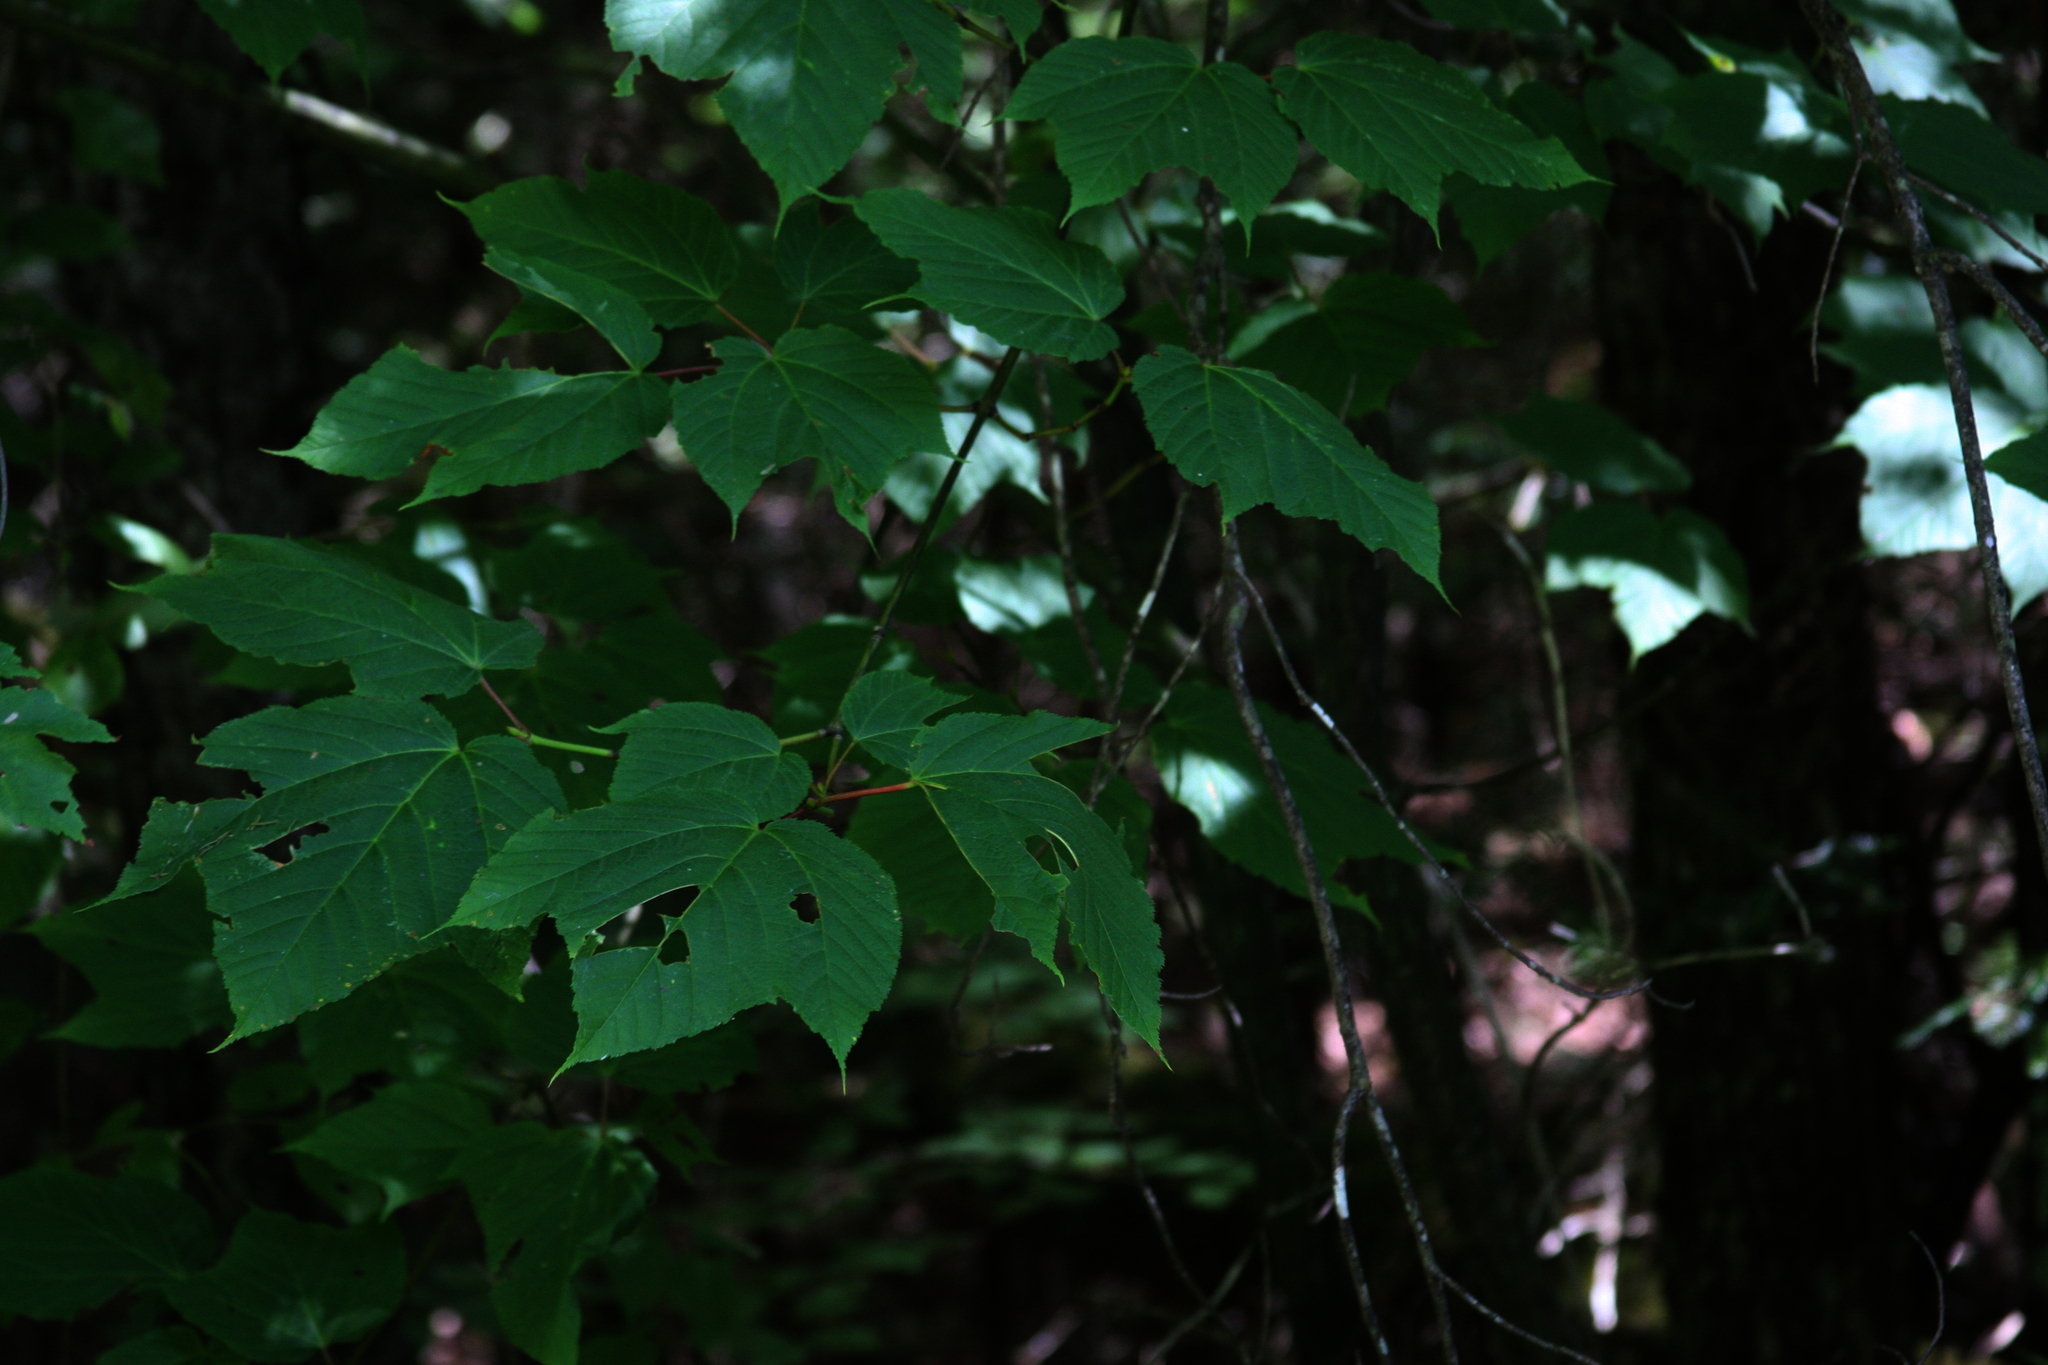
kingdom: Plantae
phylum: Tracheophyta
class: Magnoliopsida
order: Sapindales
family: Sapindaceae
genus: Acer
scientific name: Acer pensylvanicum
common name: Moosewood
